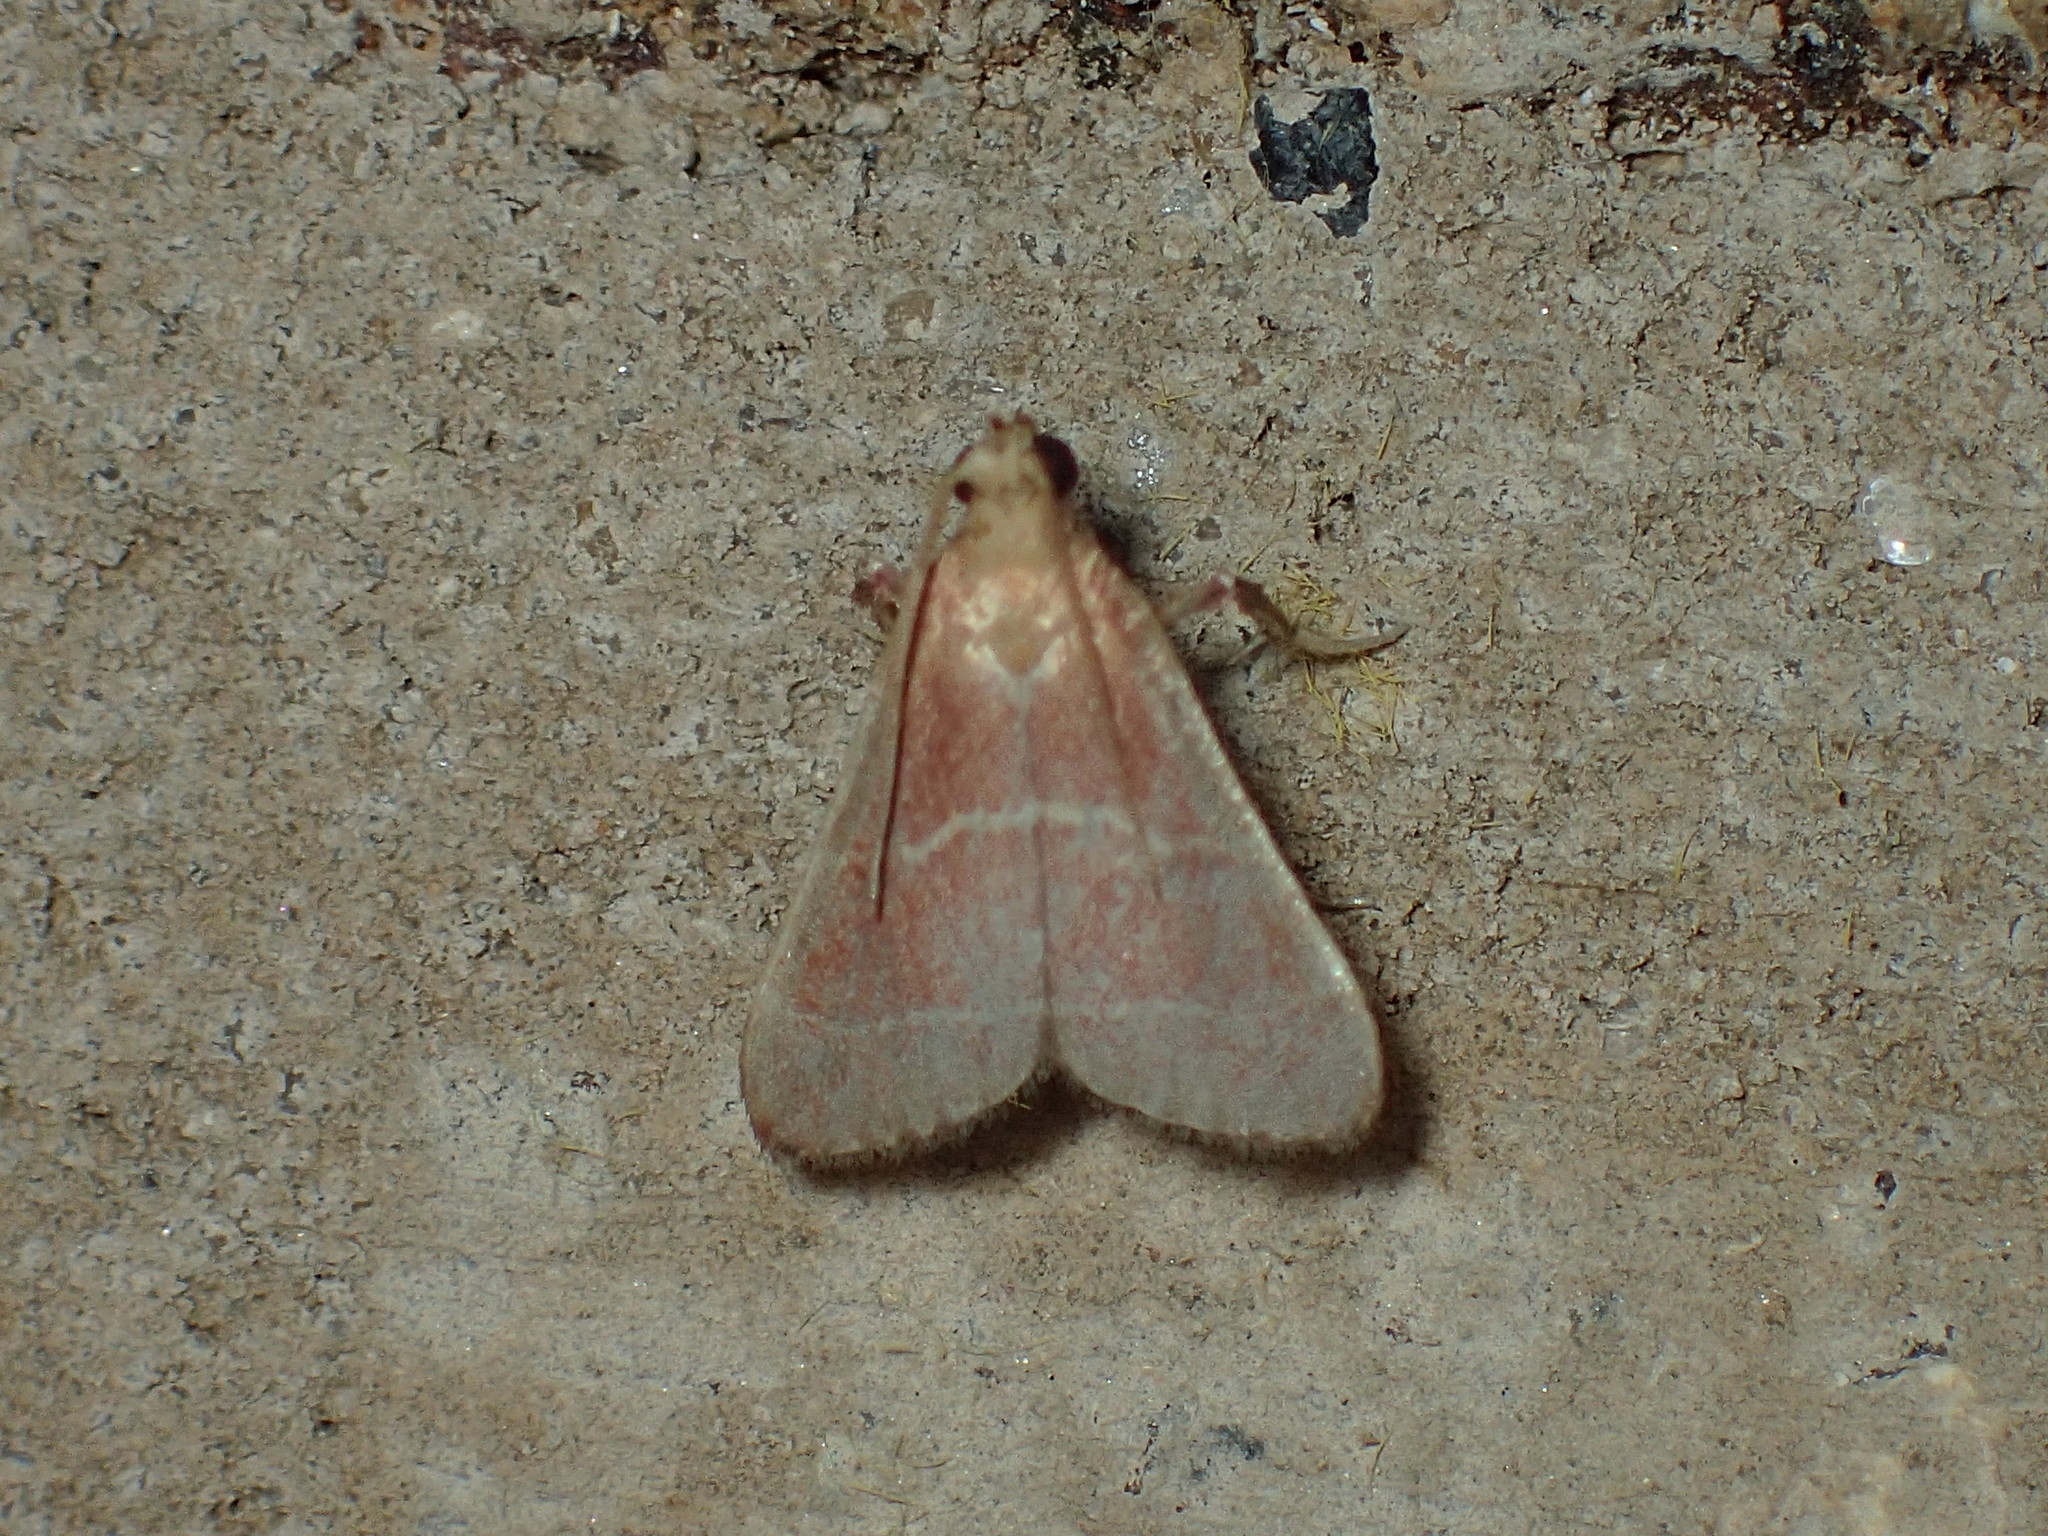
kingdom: Animalia
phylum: Arthropoda
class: Insecta
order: Lepidoptera
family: Pyralidae
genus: Arta
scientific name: Arta statalis
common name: Posturing arta moth
